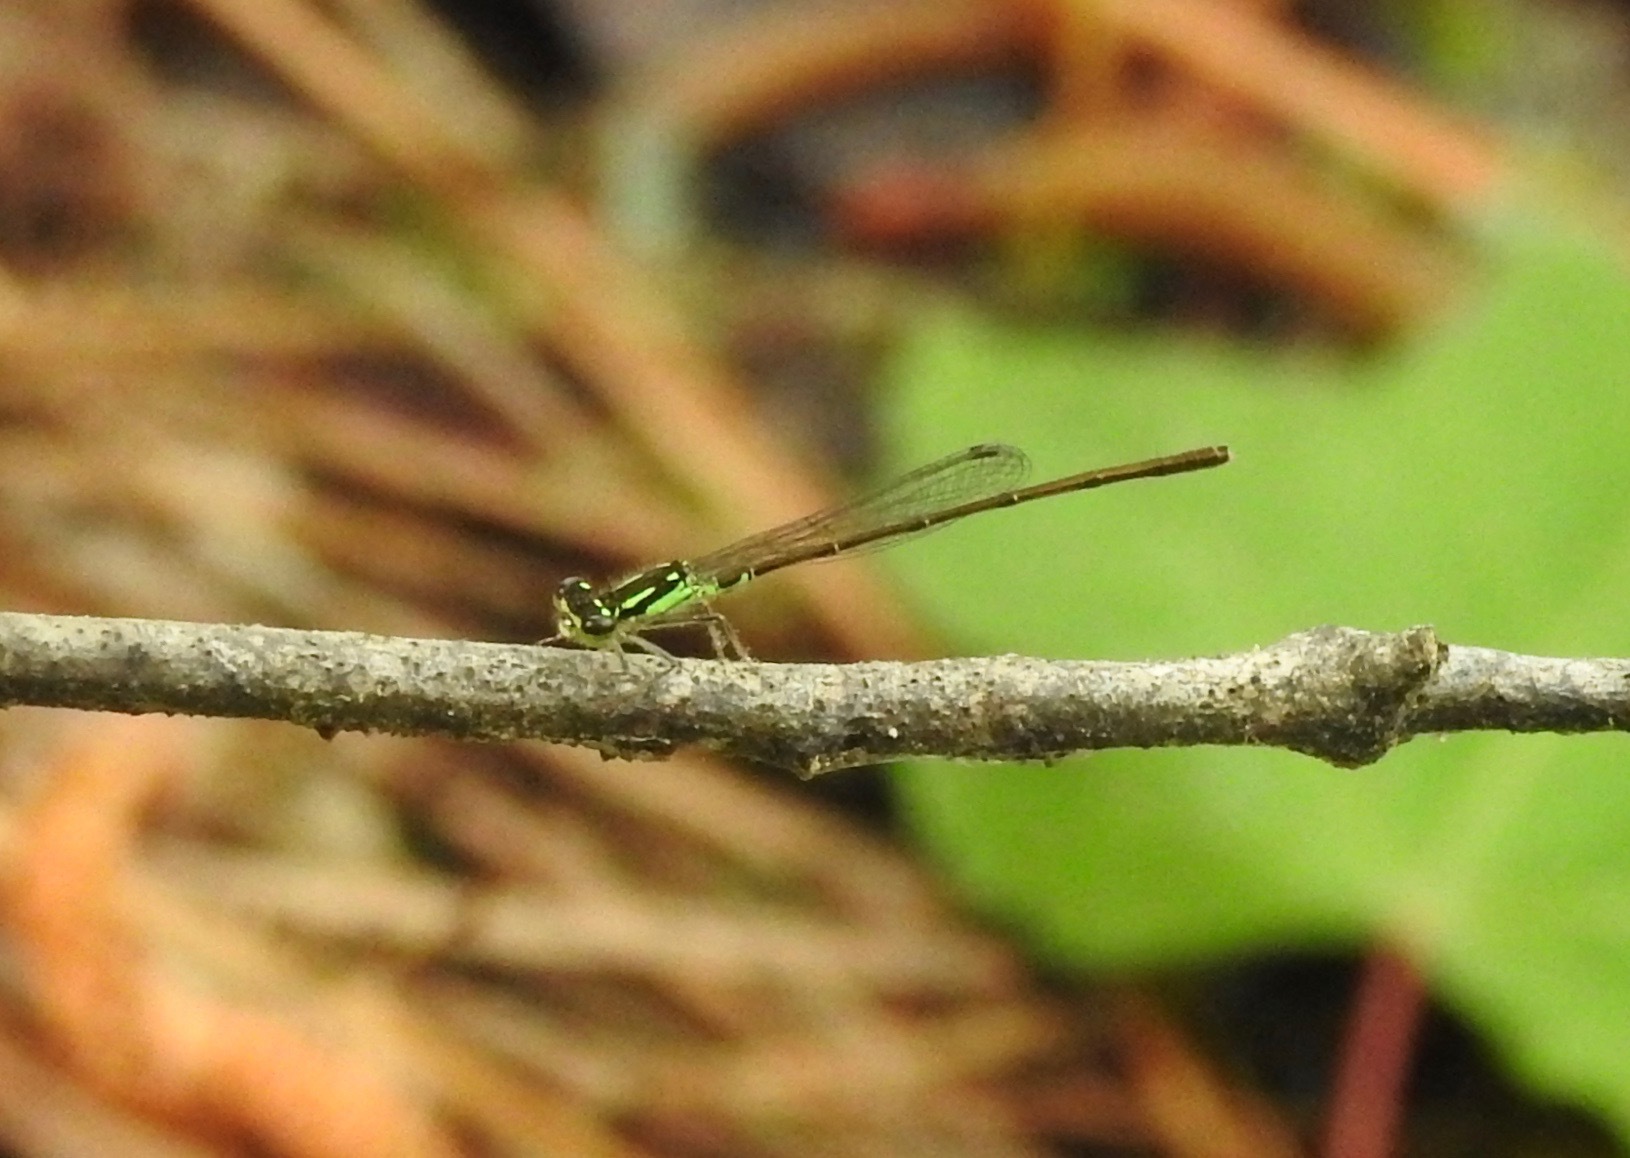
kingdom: Animalia
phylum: Arthropoda
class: Insecta
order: Odonata
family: Coenagrionidae
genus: Ischnura
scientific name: Ischnura posita
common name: Fragile forktail
